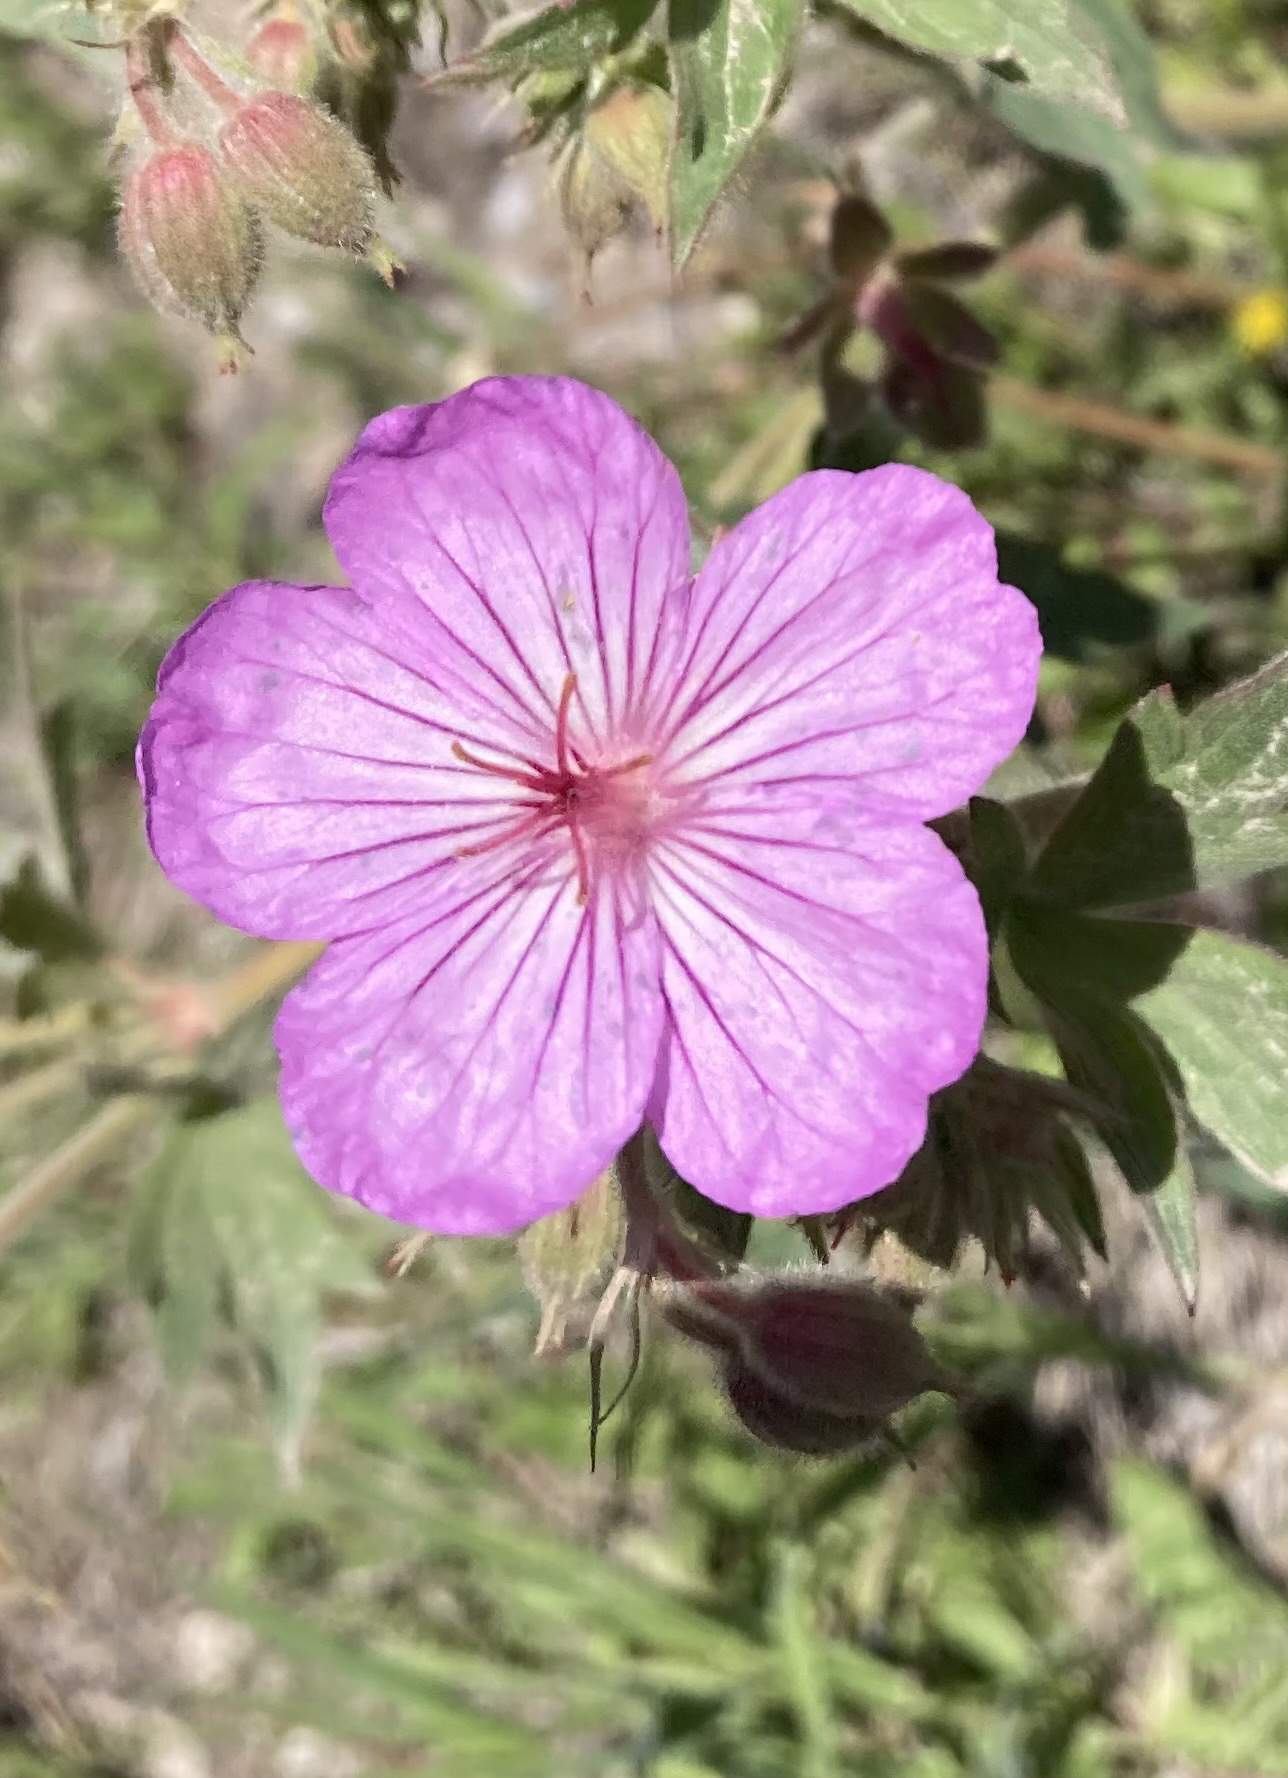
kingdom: Plantae
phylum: Tracheophyta
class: Magnoliopsida
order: Geraniales
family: Geraniaceae
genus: Geranium
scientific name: Geranium viscosissimum
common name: Purple geranium
